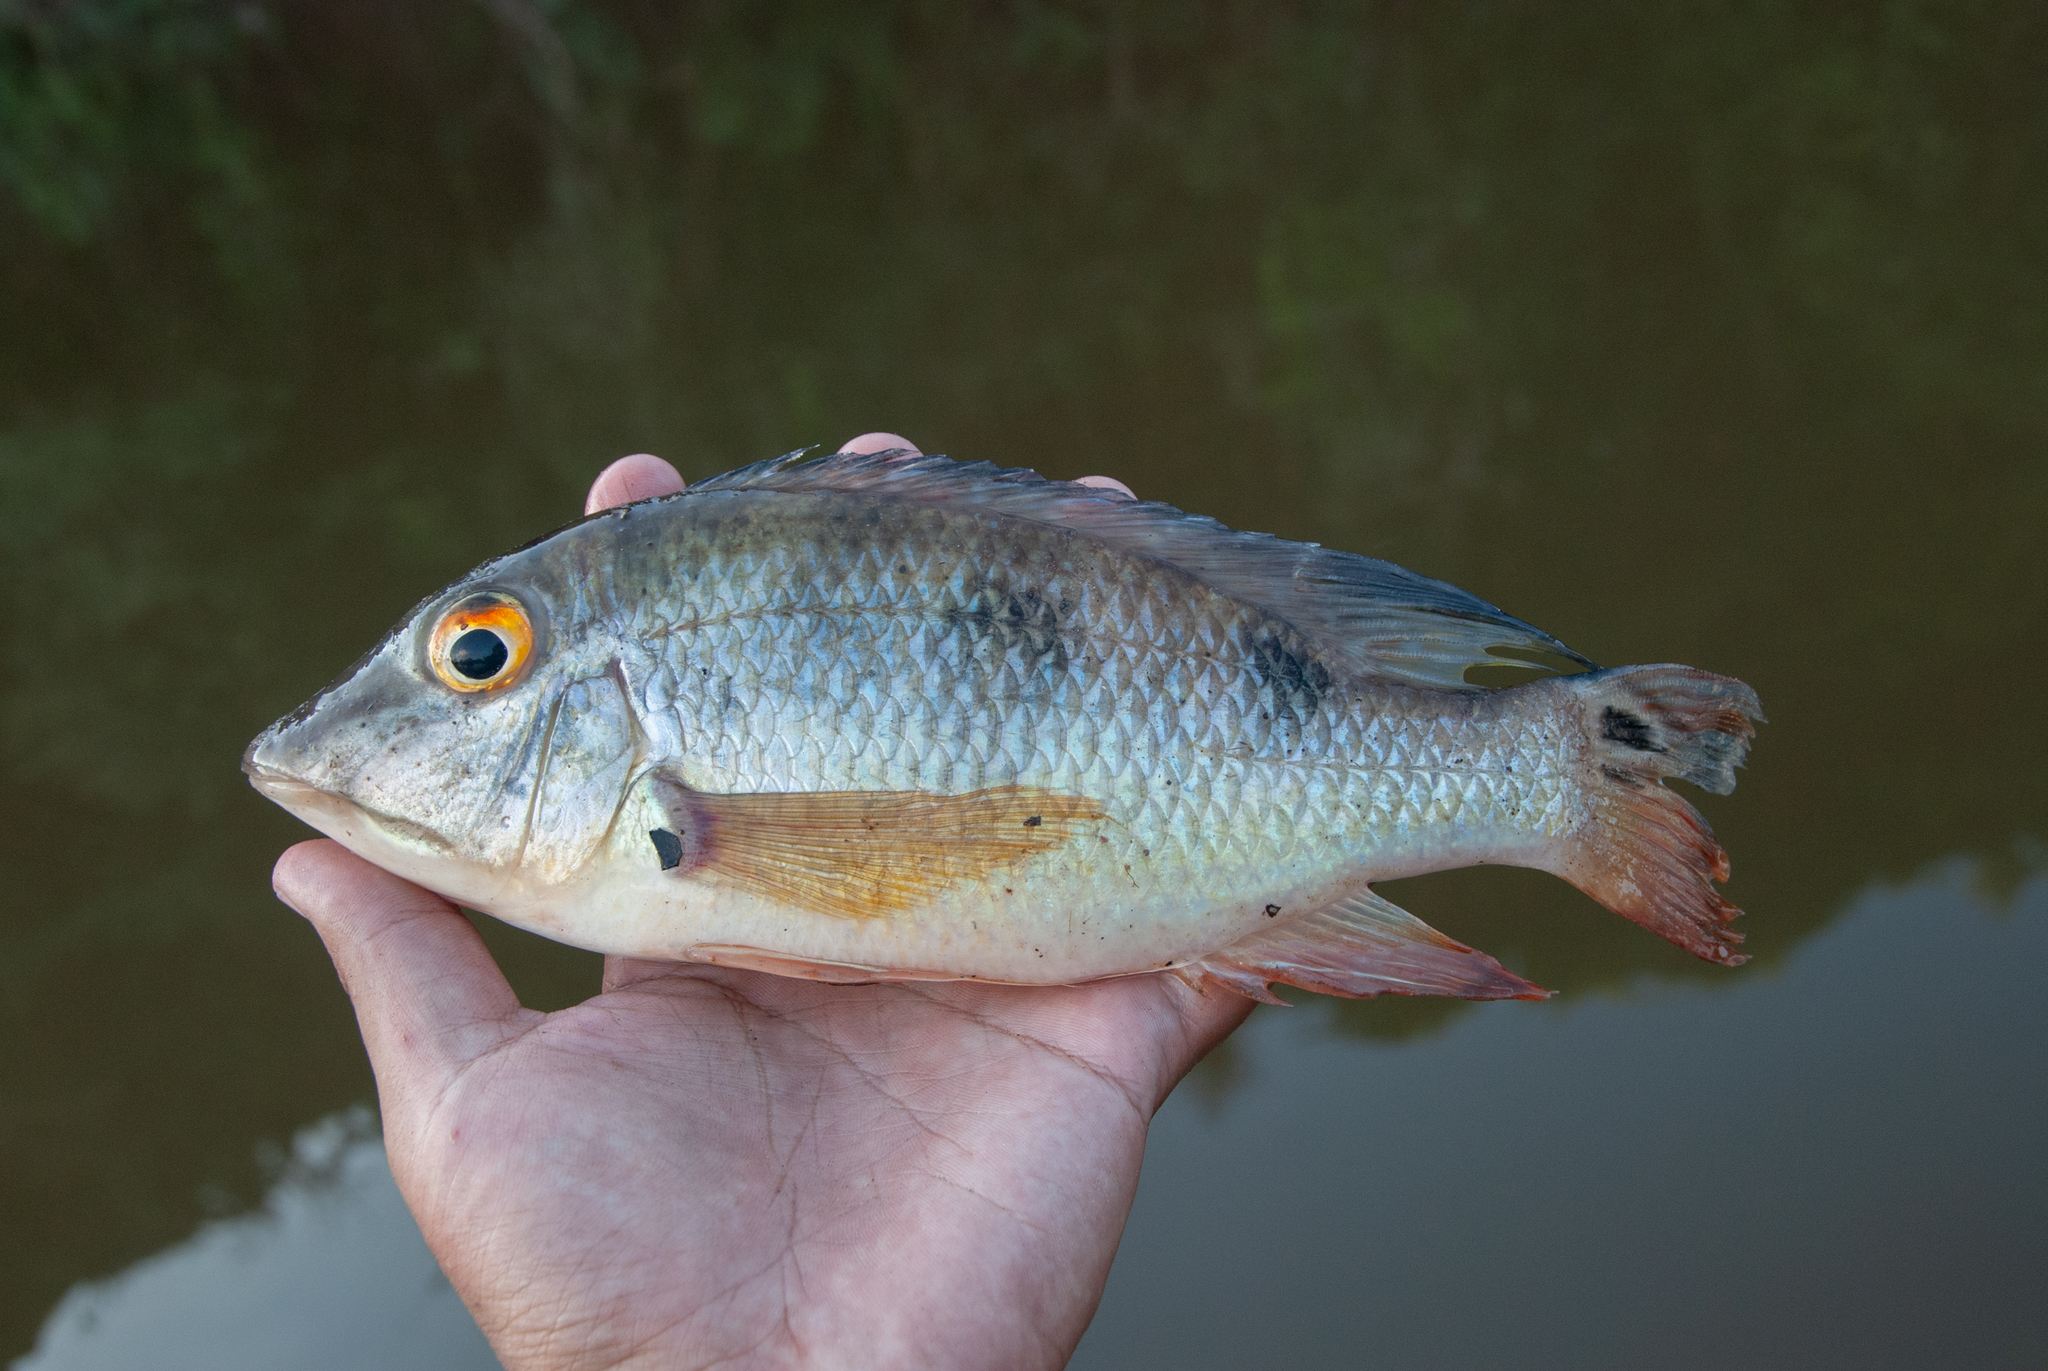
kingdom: Animalia
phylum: Chordata
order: Perciformes
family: Cichlidae
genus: Satanoperca
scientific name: Satanoperca acuticeps
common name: Sharphead eartheater
